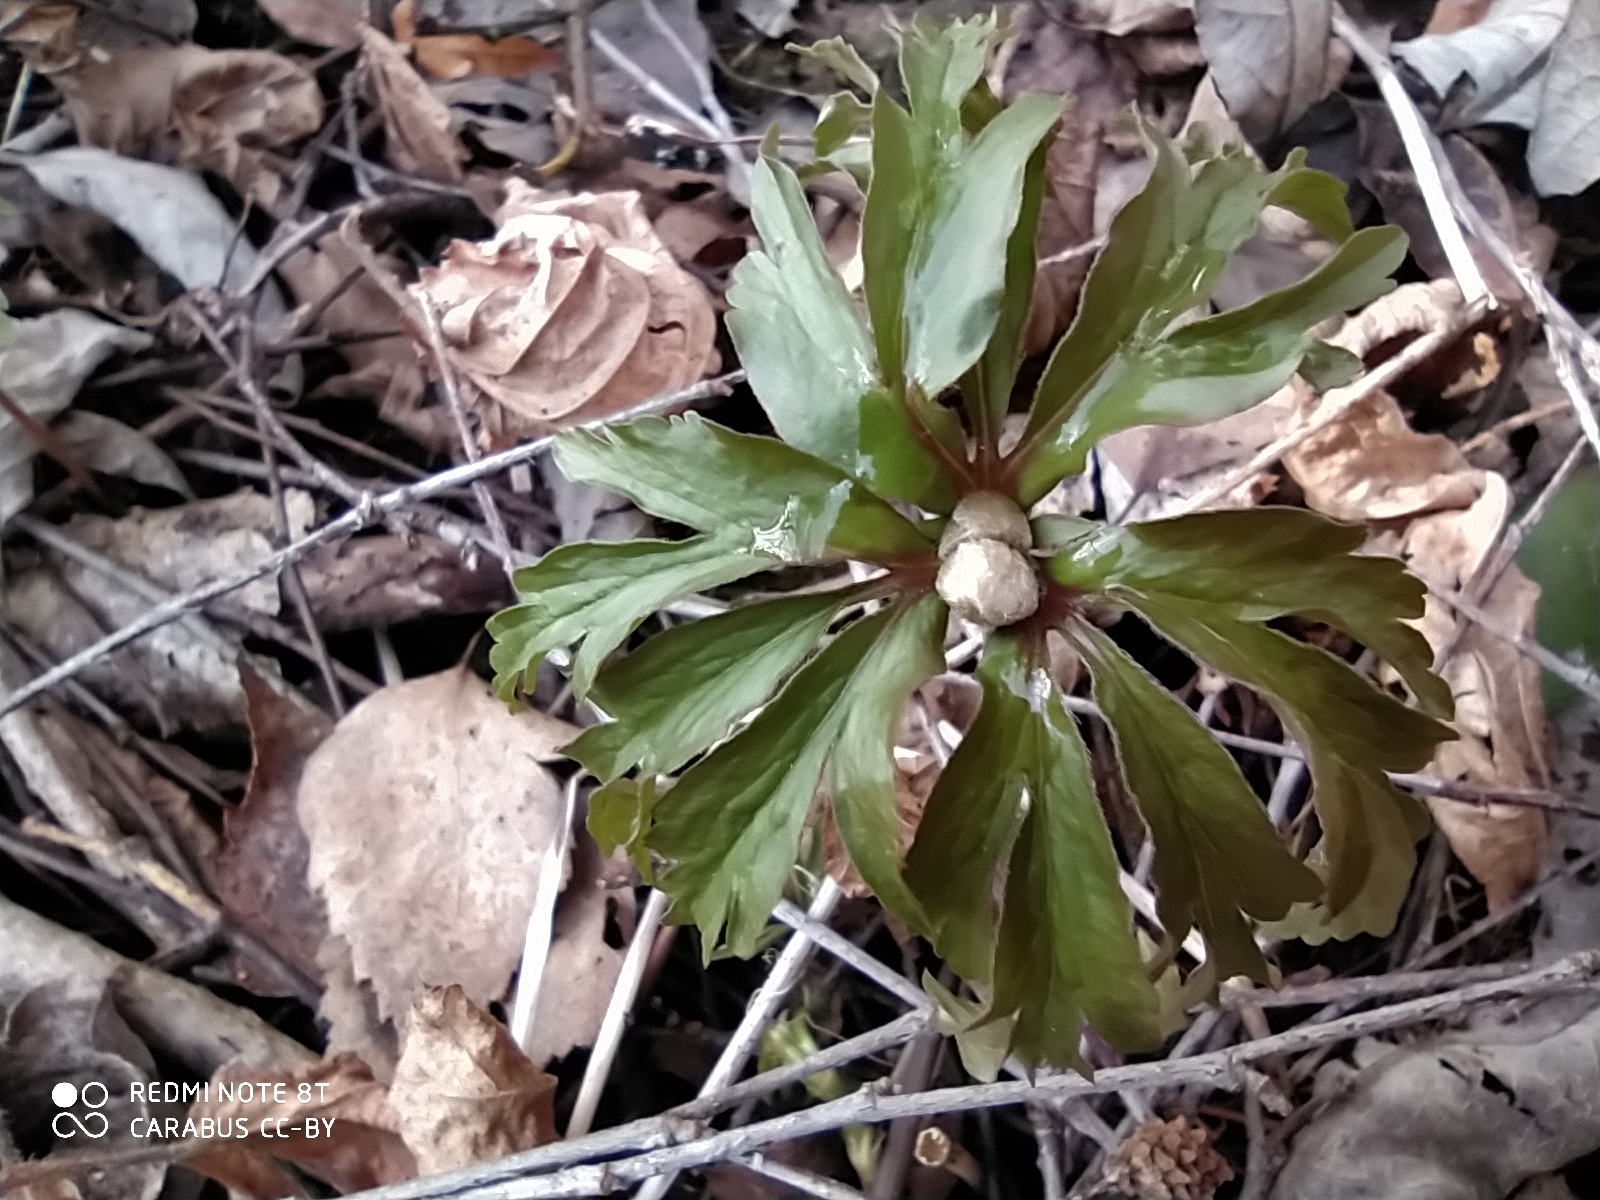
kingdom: Plantae
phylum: Tracheophyta
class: Magnoliopsida
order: Ranunculales
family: Ranunculaceae
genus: Anemone
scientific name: Anemone ranunculoides
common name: Yellow anemone
